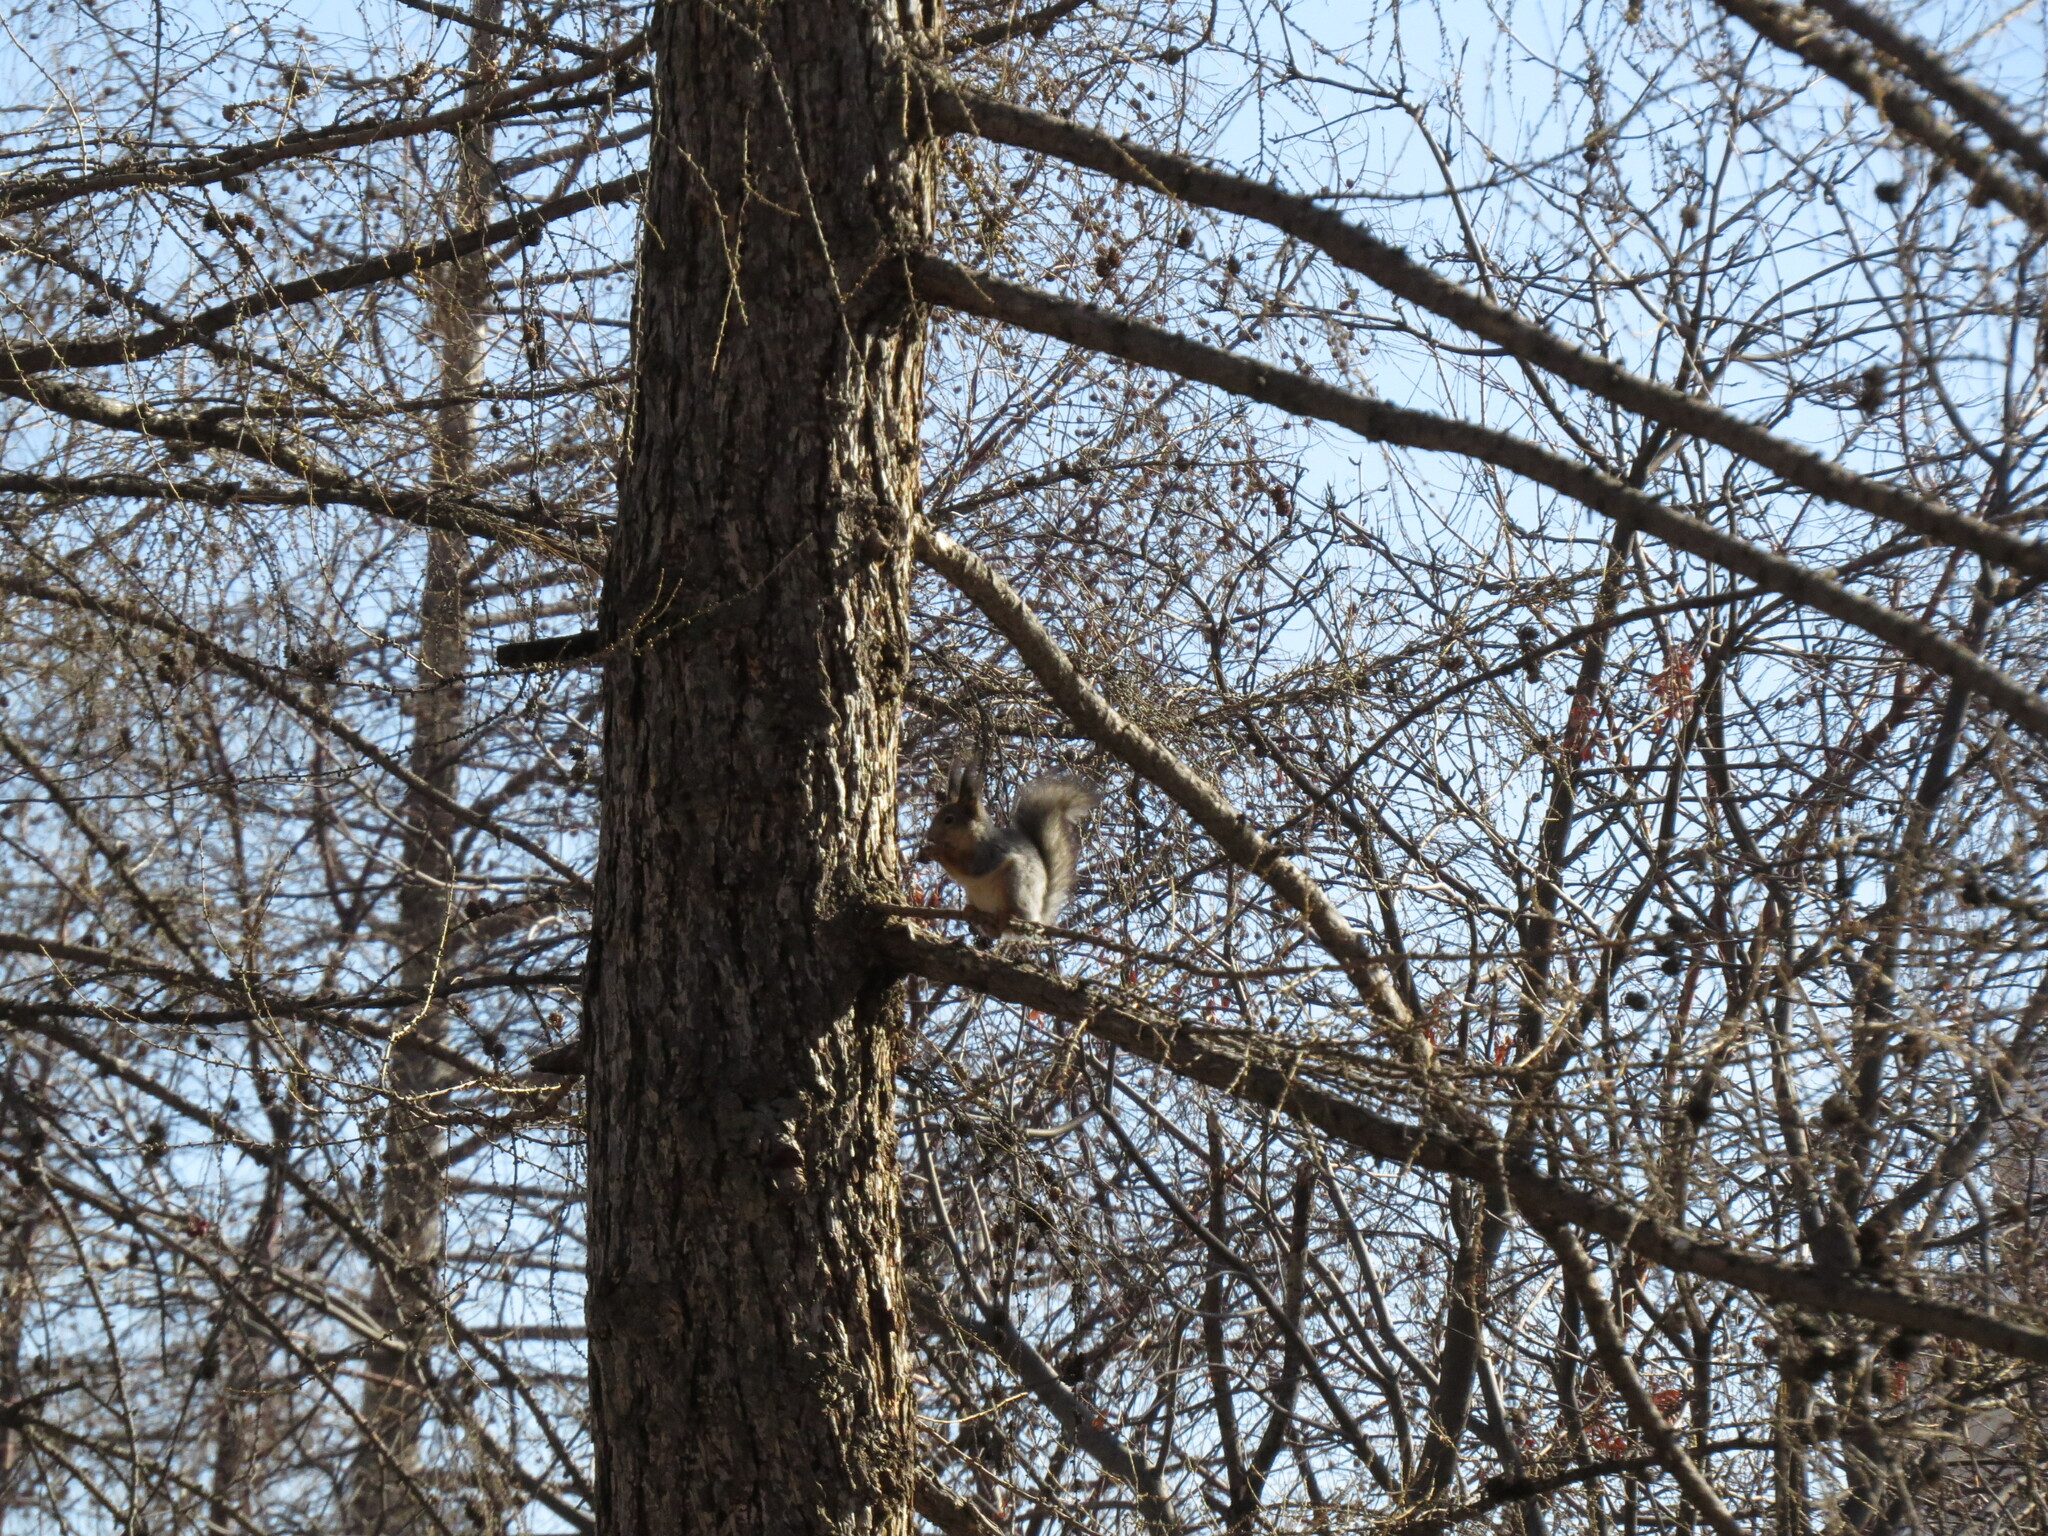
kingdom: Animalia
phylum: Chordata
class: Mammalia
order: Rodentia
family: Sciuridae
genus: Sciurus
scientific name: Sciurus vulgaris
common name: Eurasian red squirrel
